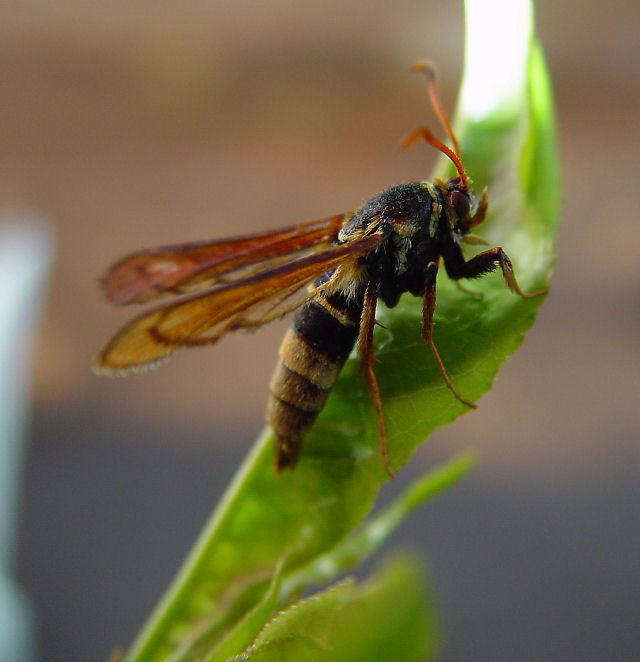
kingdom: Animalia
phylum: Arthropoda
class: Insecta
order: Lepidoptera
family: Sesiidae
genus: Paranthrene
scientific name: Paranthrene robiniae
